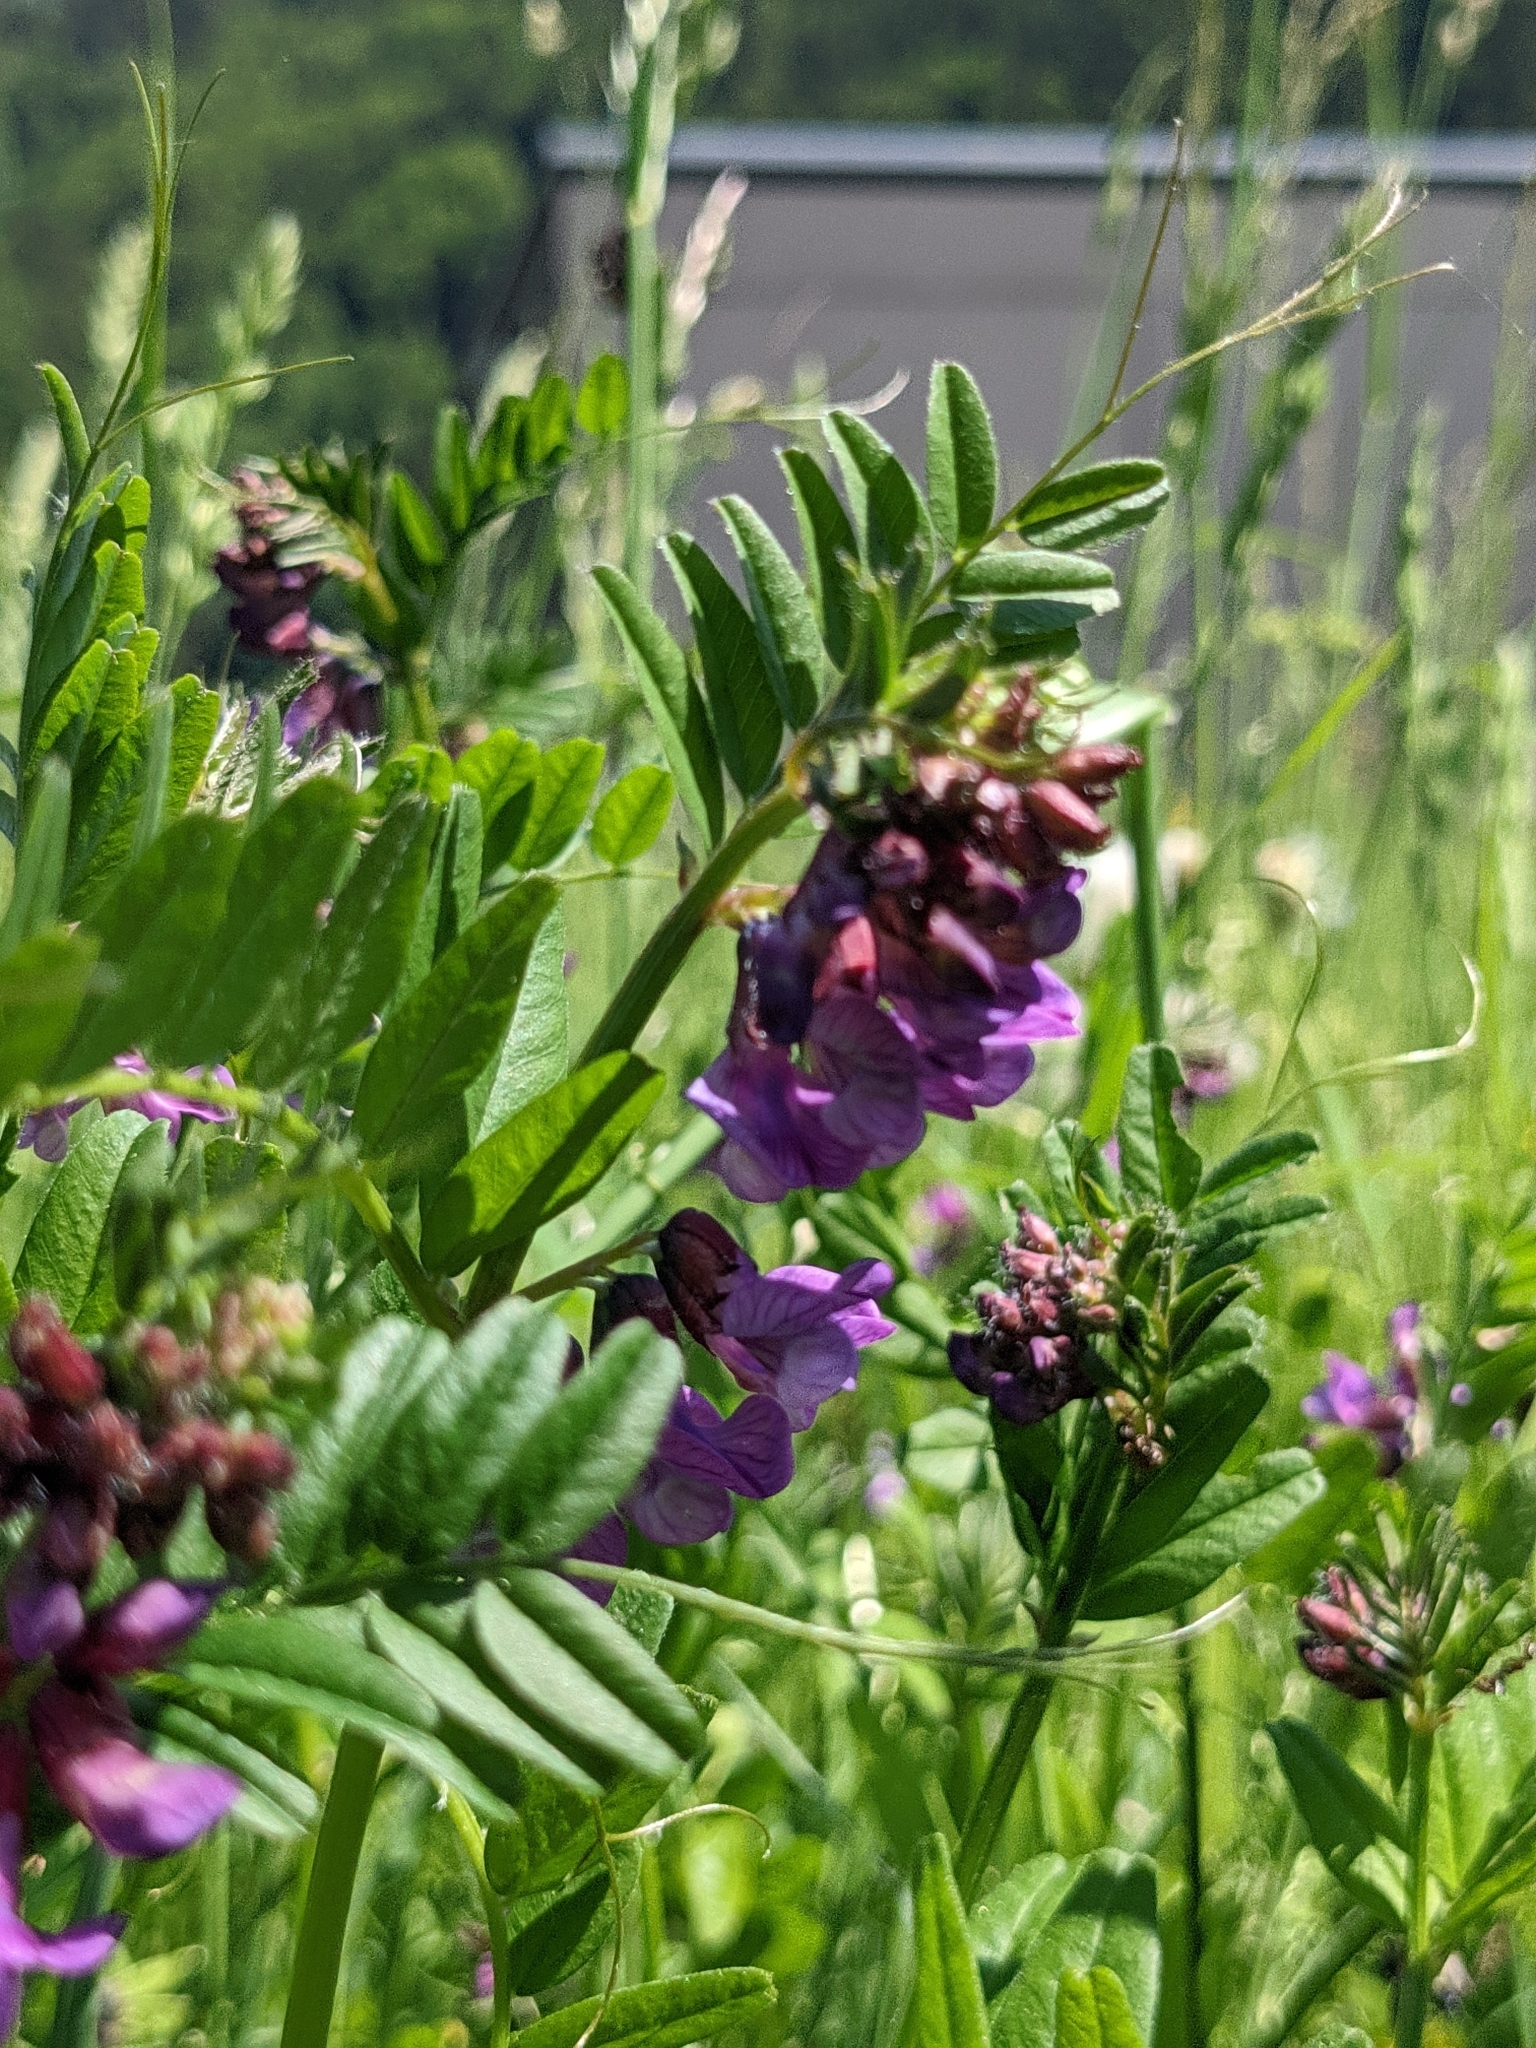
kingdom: Plantae
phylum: Tracheophyta
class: Magnoliopsida
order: Fabales
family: Fabaceae
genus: Vicia
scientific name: Vicia sepium
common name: Bush vetch
